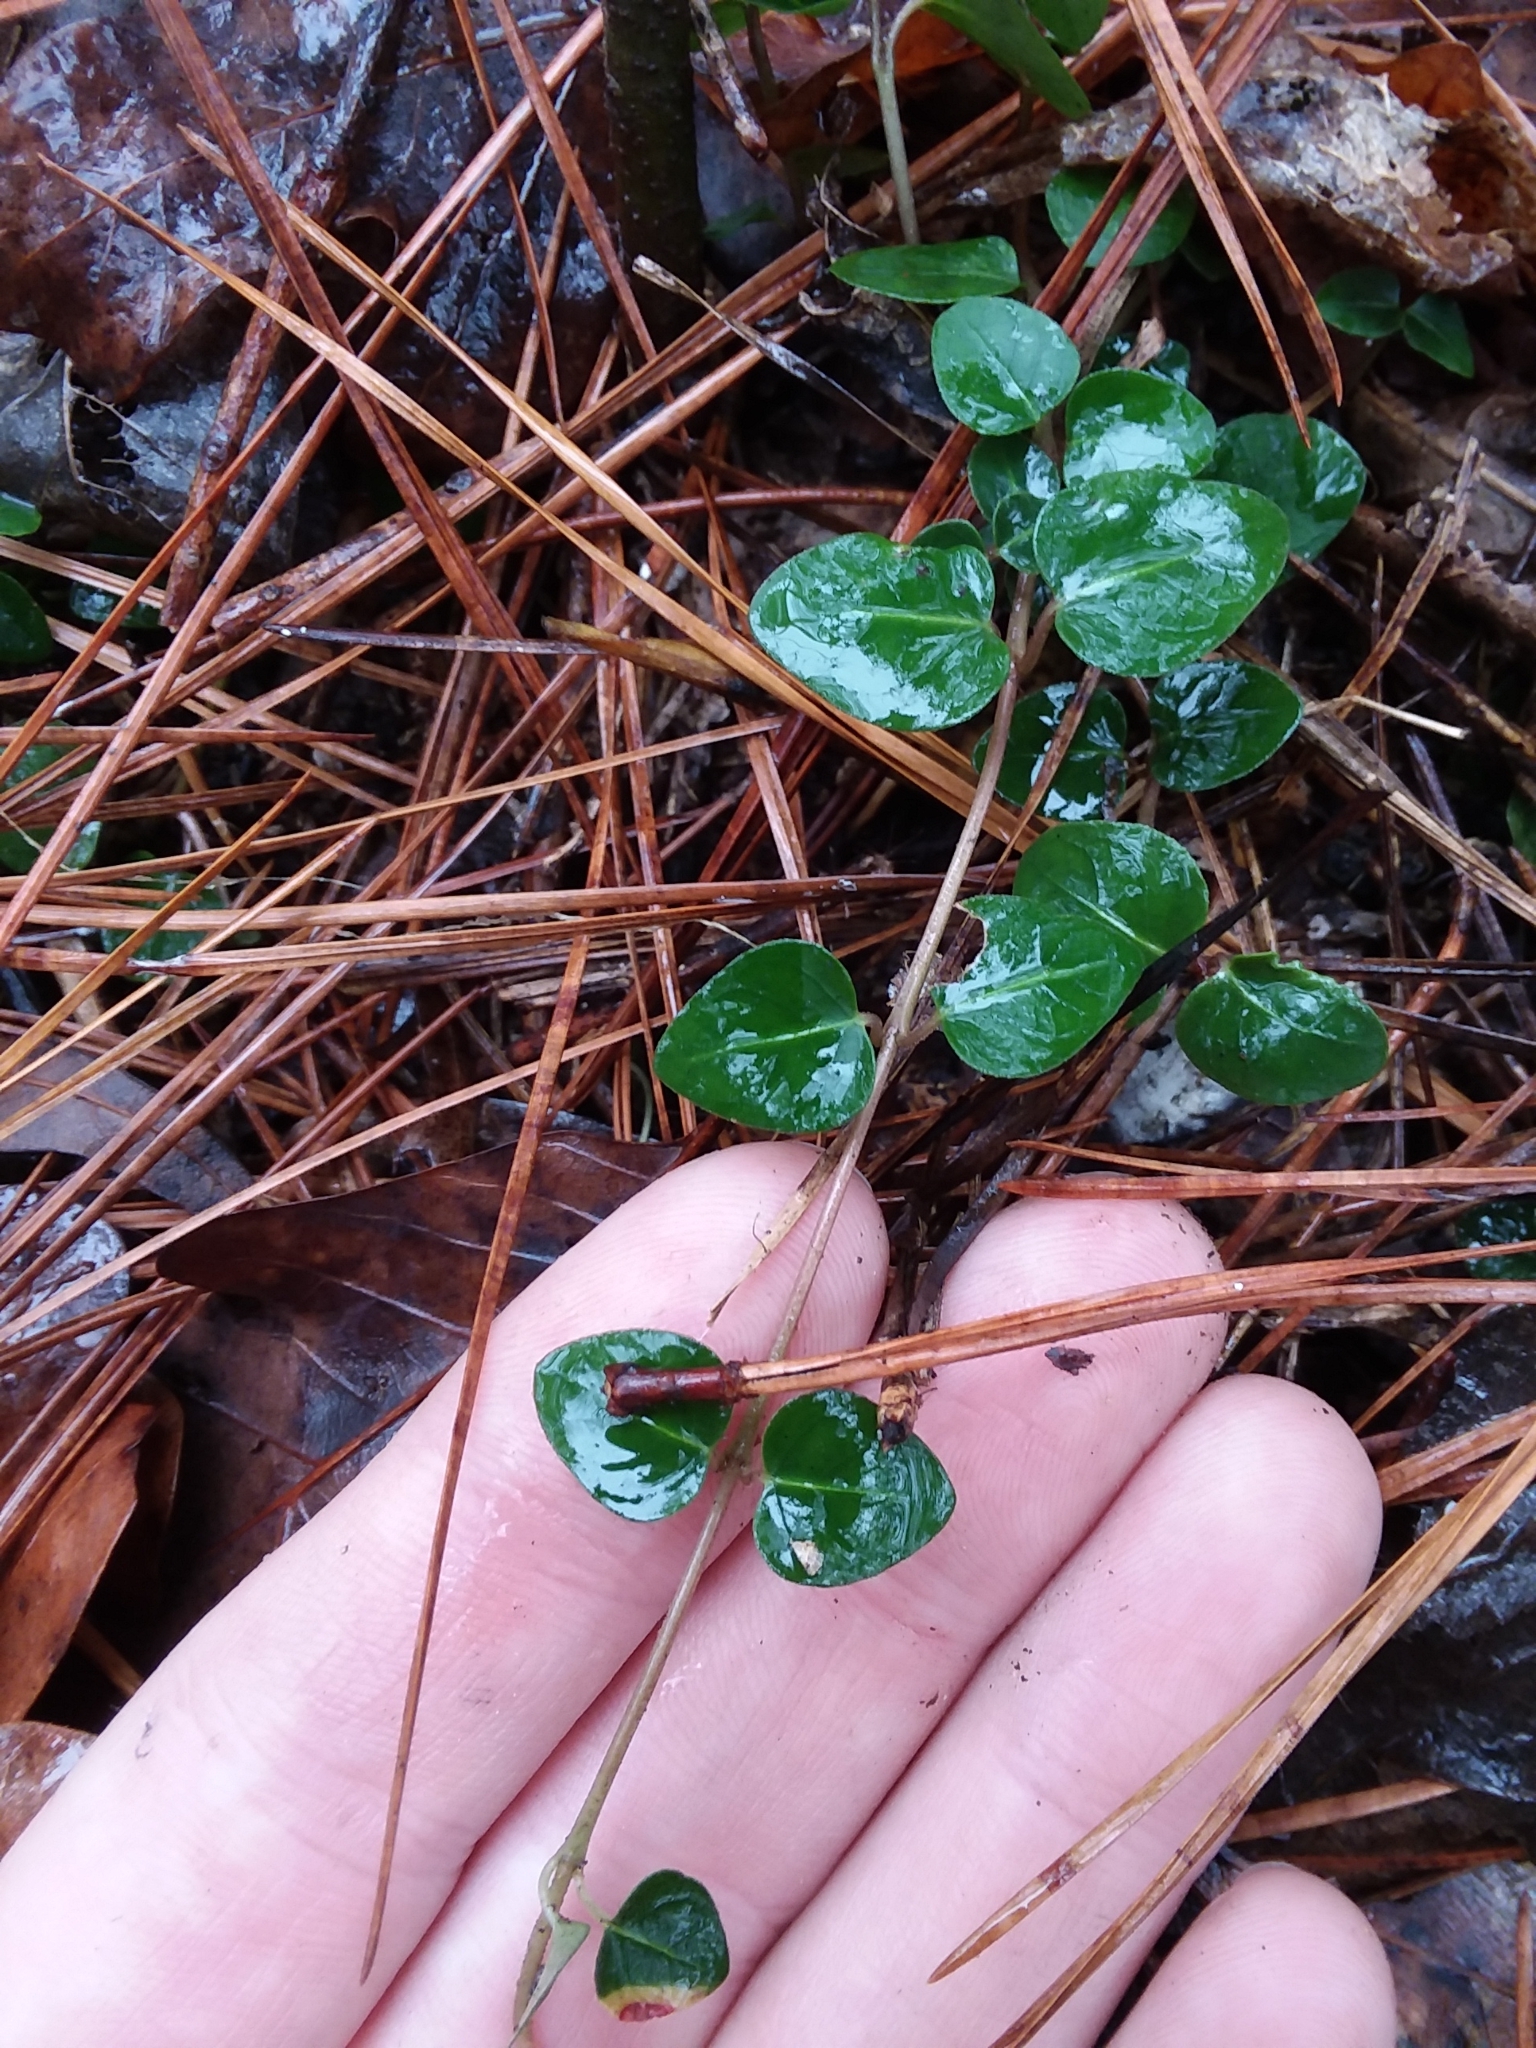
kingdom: Plantae
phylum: Tracheophyta
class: Magnoliopsida
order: Gentianales
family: Rubiaceae
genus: Mitchella
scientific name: Mitchella repens
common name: Partridge-berry
